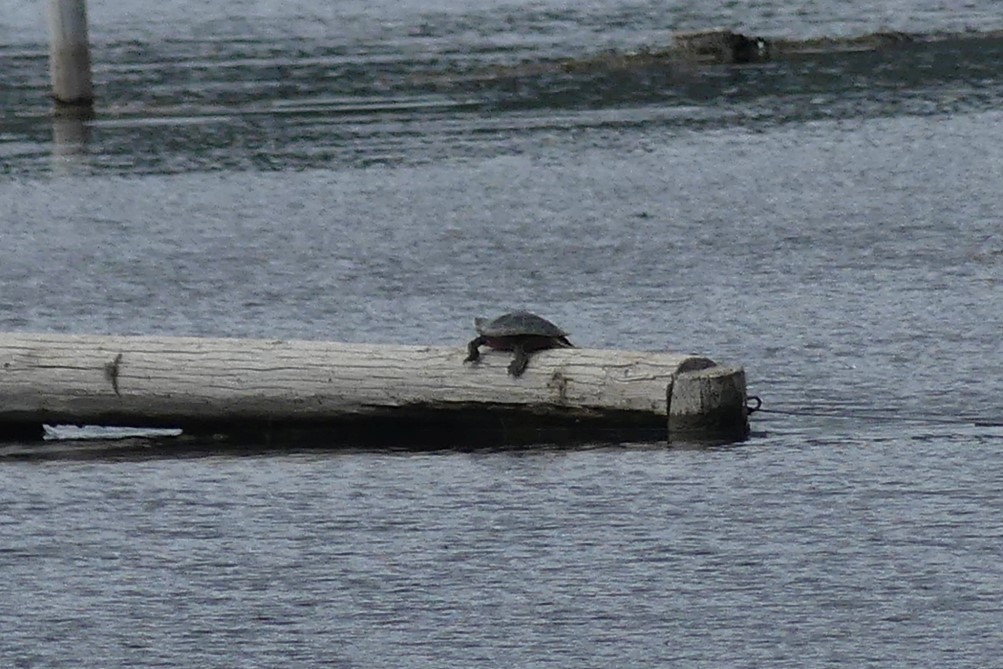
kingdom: Animalia
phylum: Chordata
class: Testudines
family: Emydidae
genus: Chrysemys
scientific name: Chrysemys picta
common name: Painted turtle
